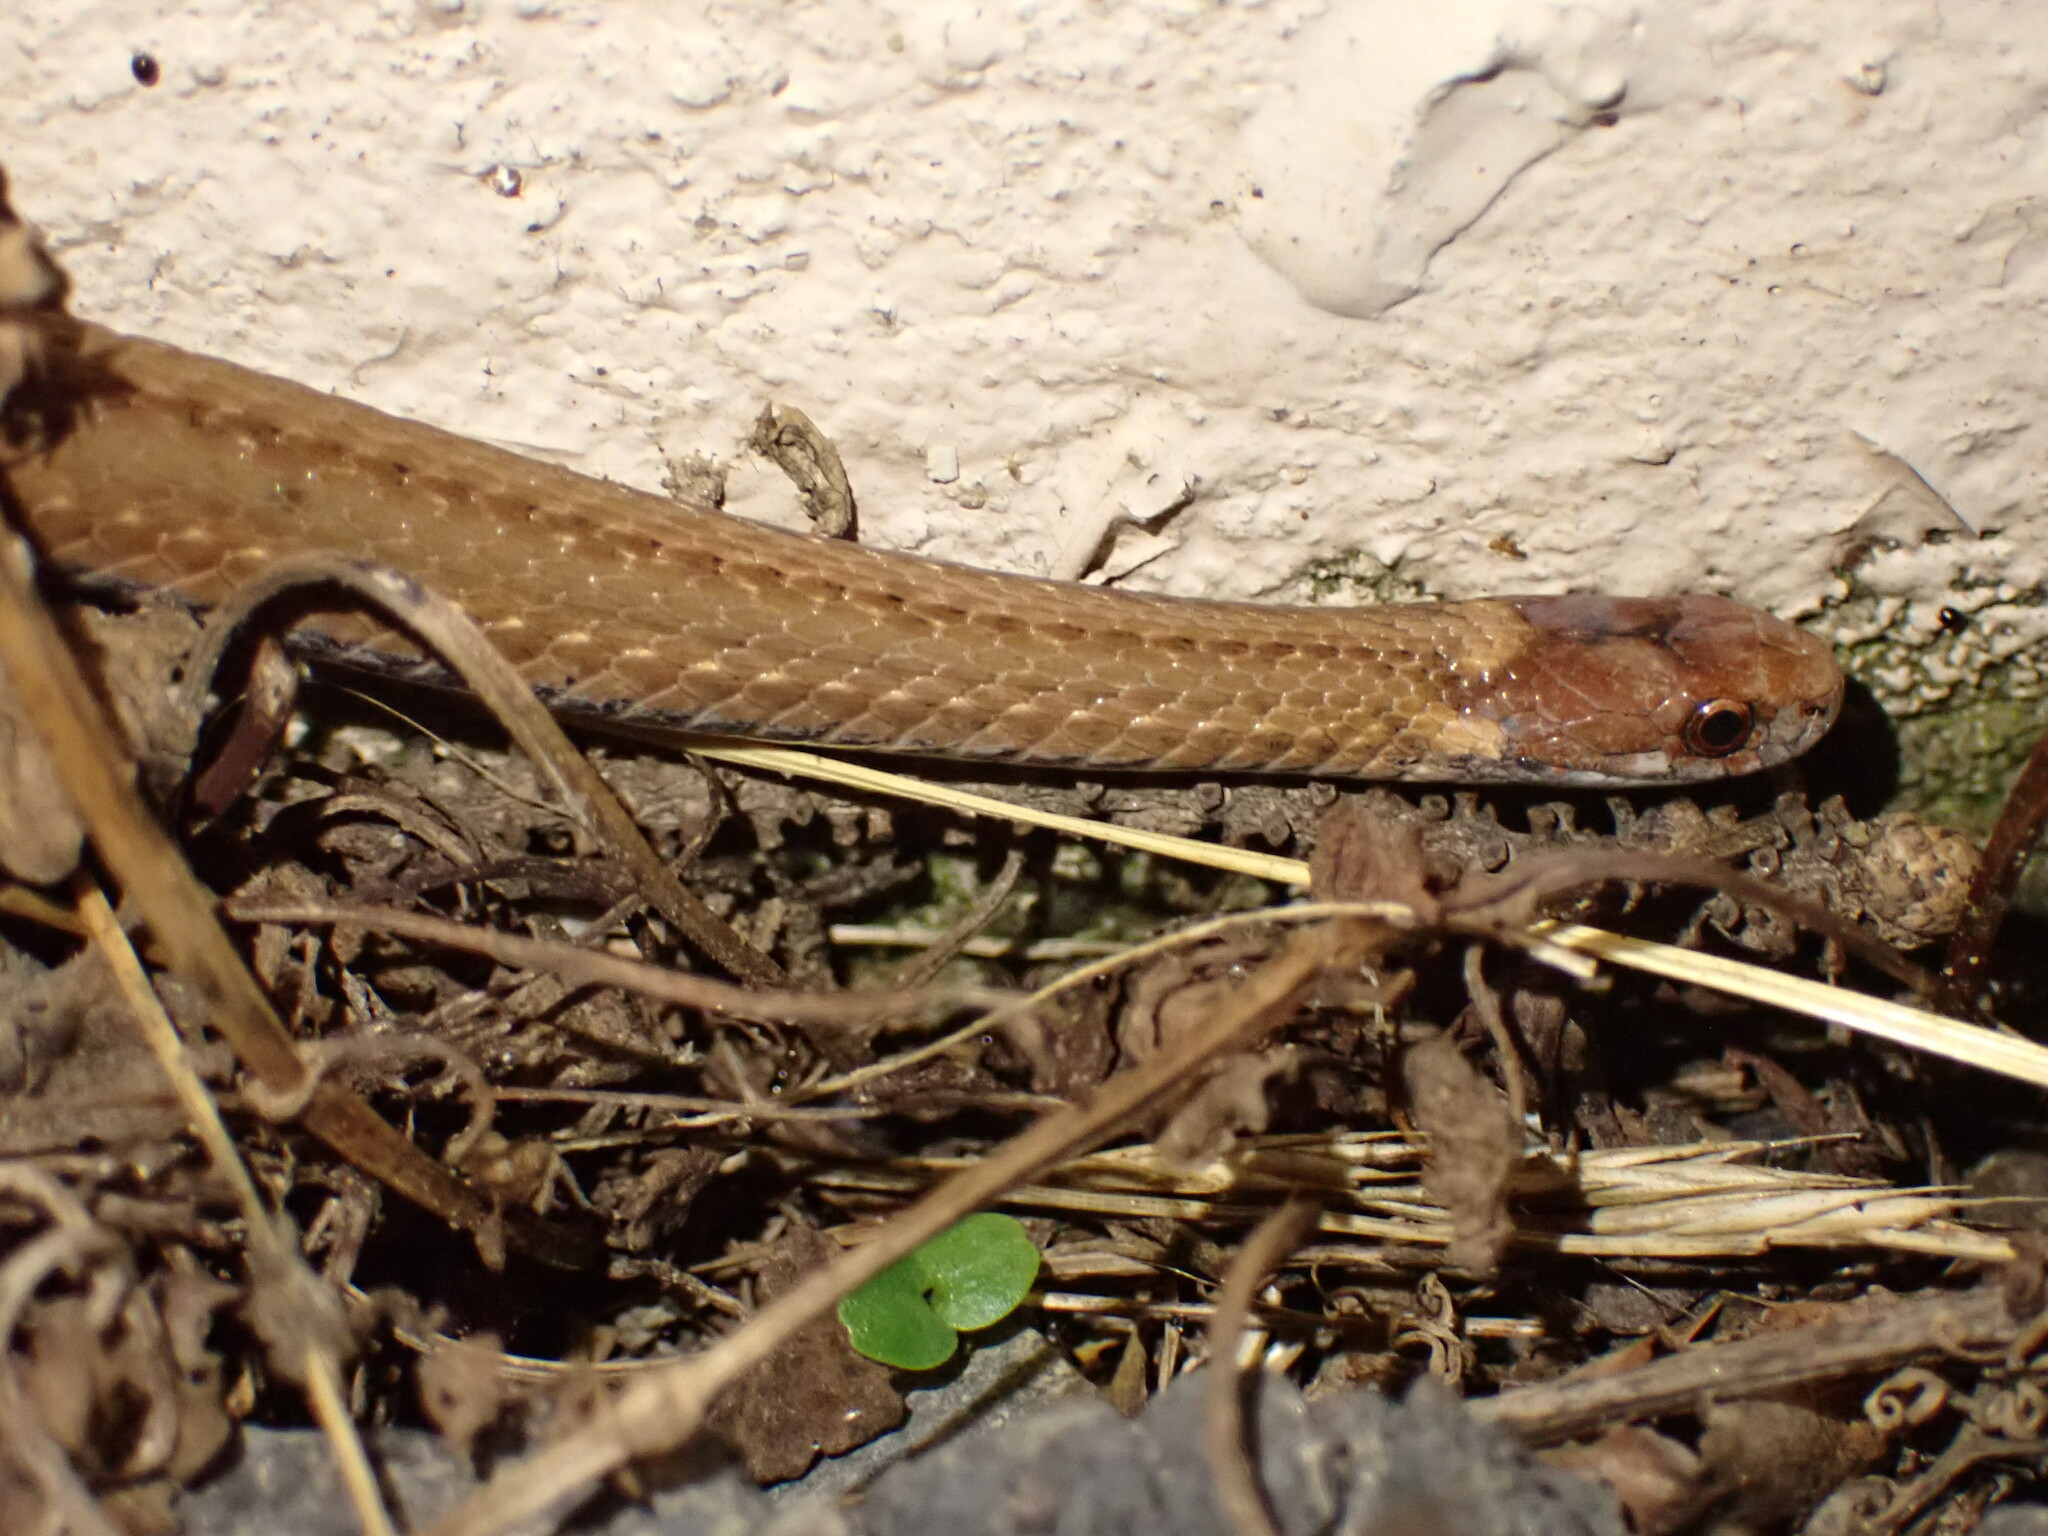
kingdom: Animalia
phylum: Chordata
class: Squamata
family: Colubridae
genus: Storeria
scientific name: Storeria occipitomaculata
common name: Redbelly snake
